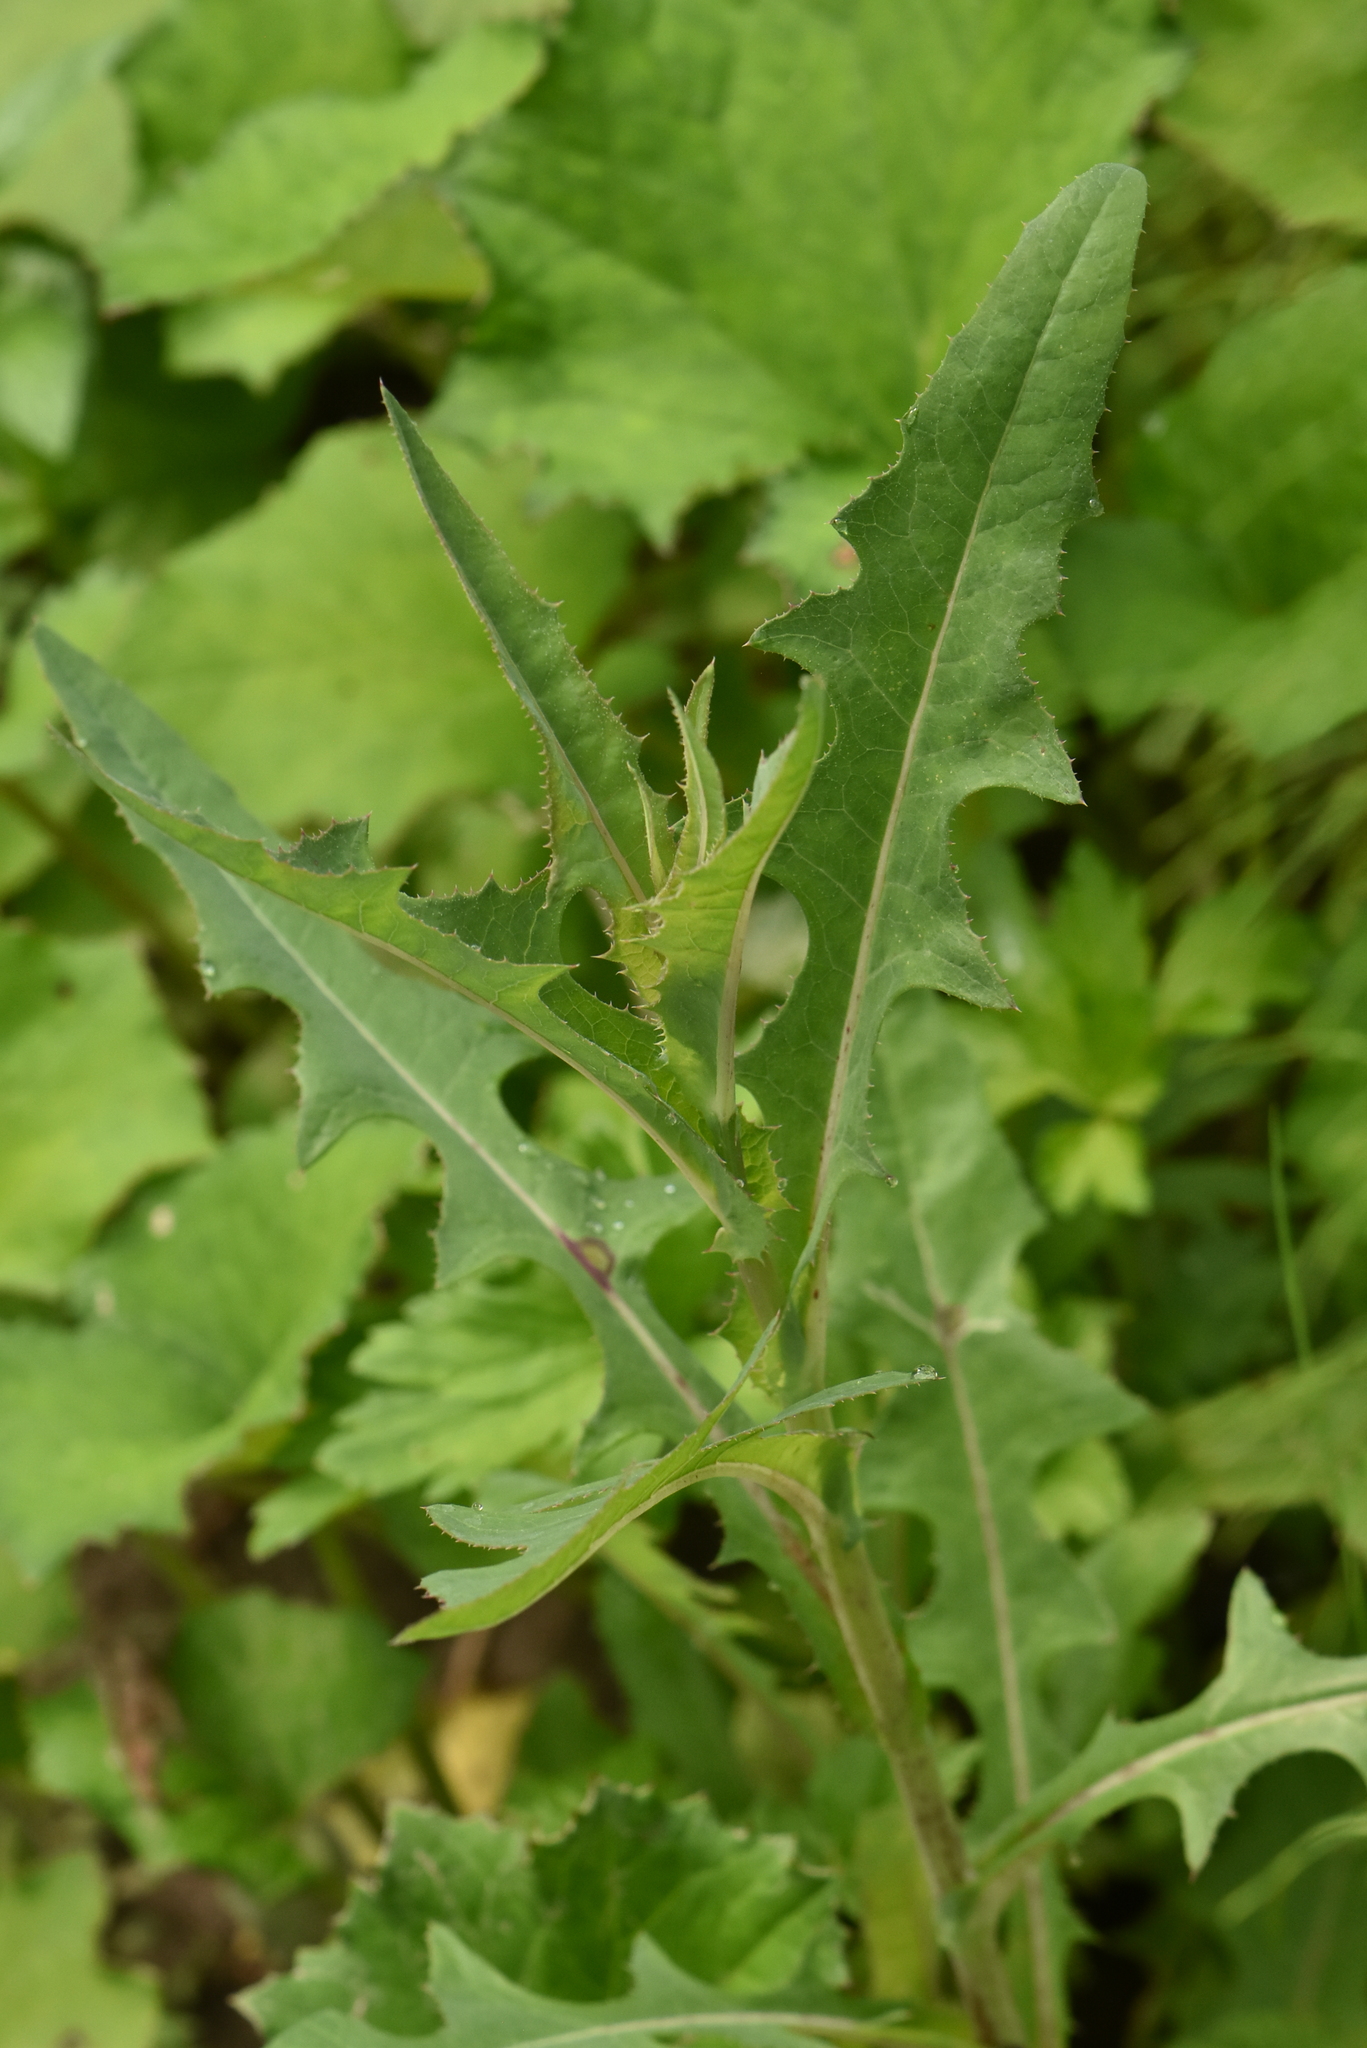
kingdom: Plantae
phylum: Tracheophyta
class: Magnoliopsida
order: Asterales
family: Asteraceae
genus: Lactuca
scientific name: Lactuca serriola
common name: Prickly lettuce
